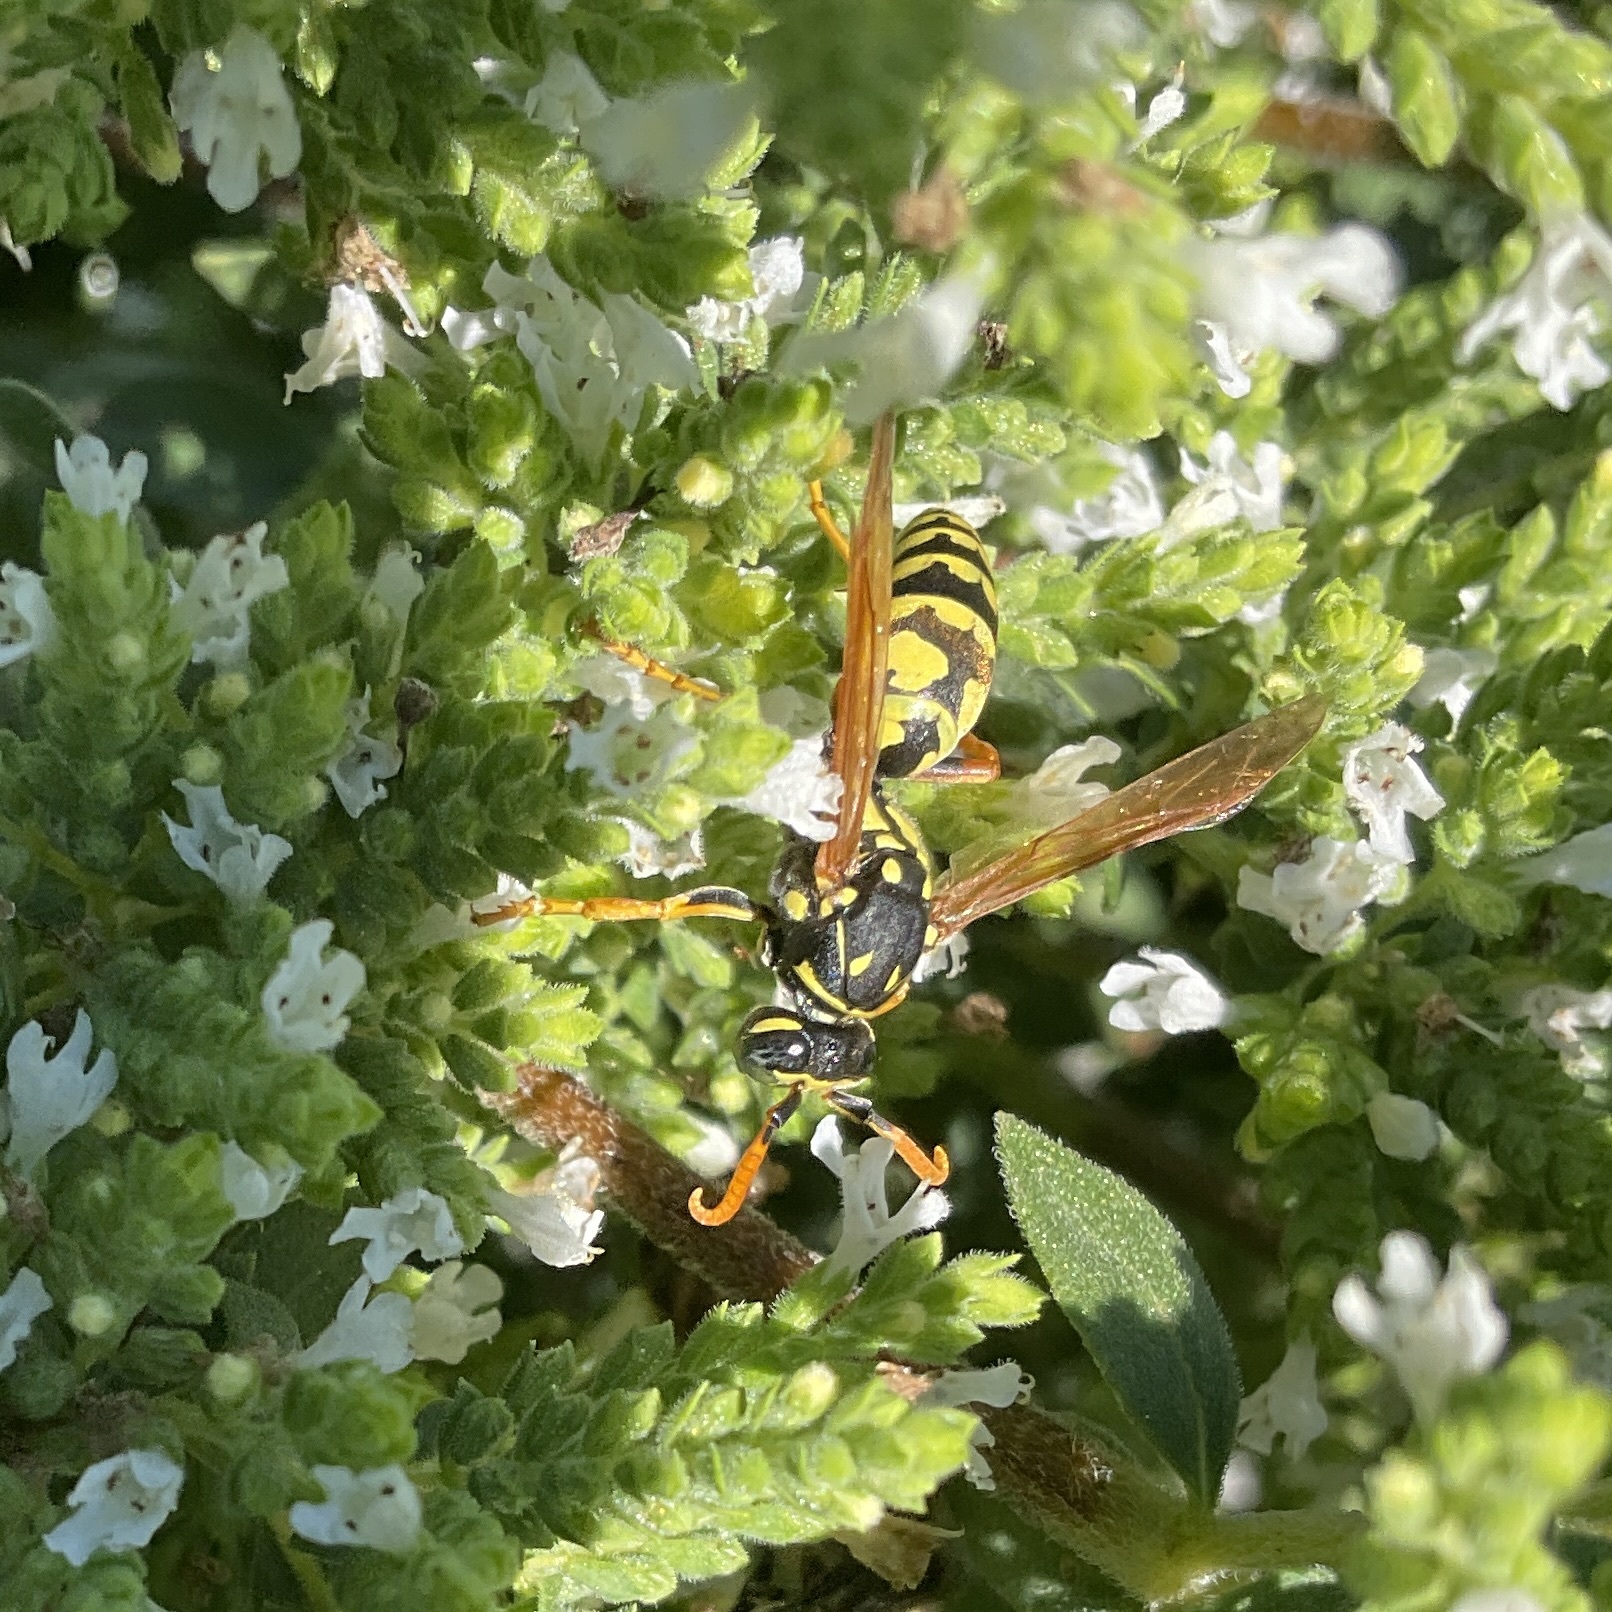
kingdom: Animalia
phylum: Arthropoda
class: Insecta
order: Hymenoptera
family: Eumenidae
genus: Polistes
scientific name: Polistes dominula
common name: Paper wasp
